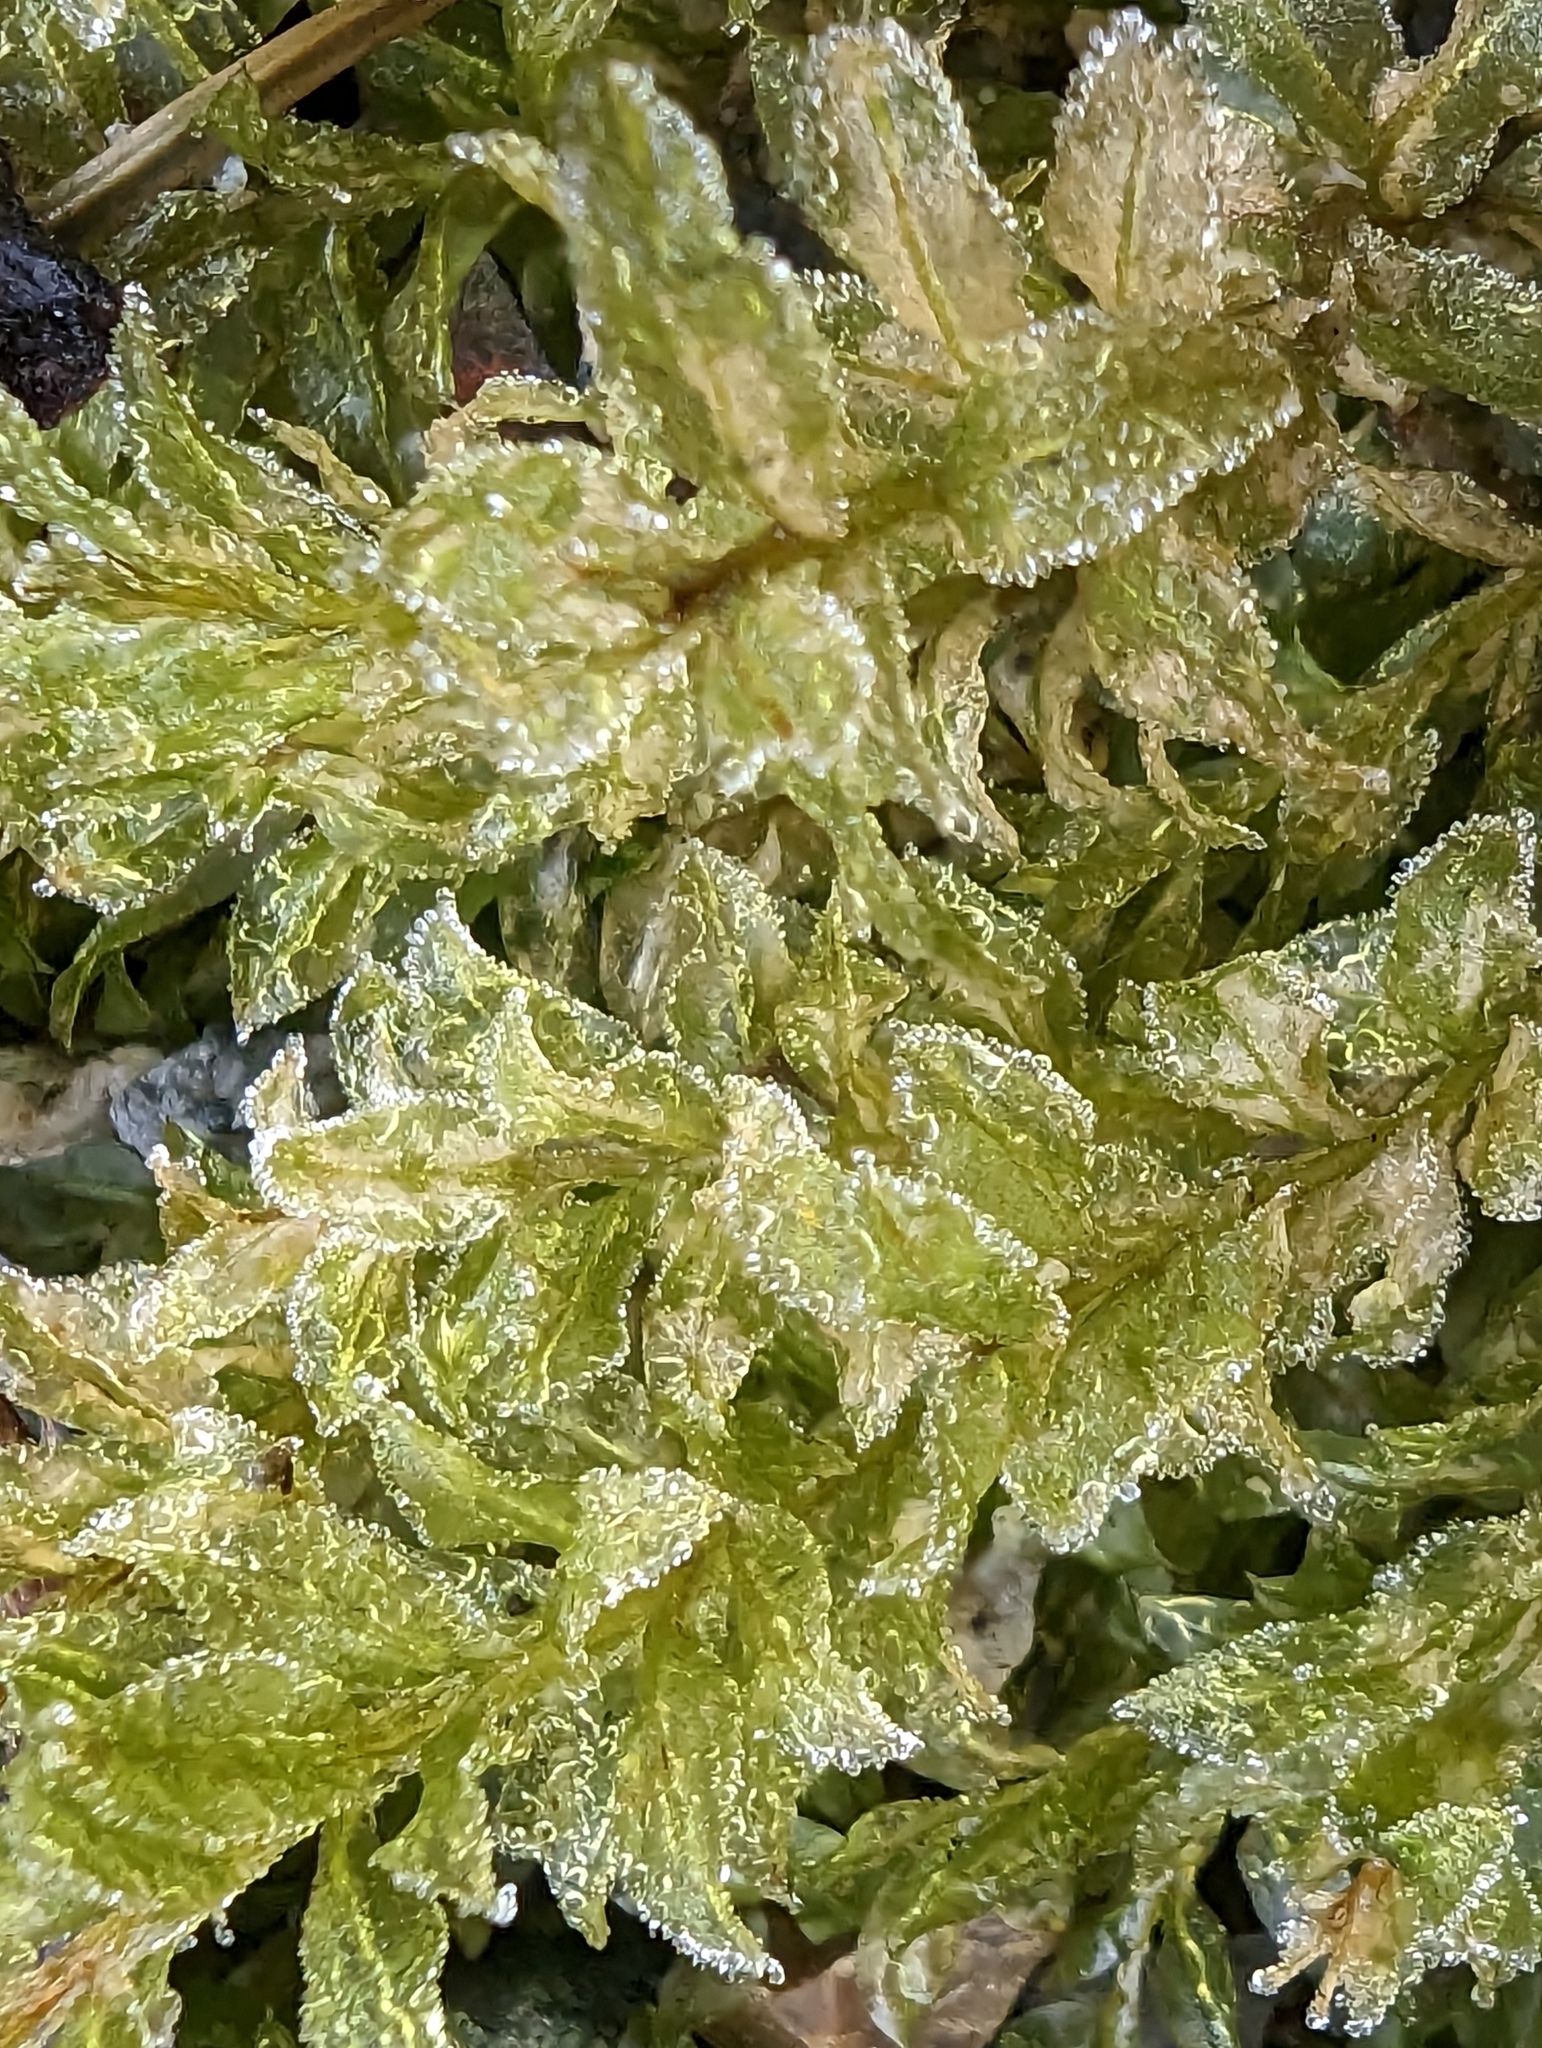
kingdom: Plantae
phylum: Bryophyta
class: Bryopsida
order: Bryales
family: Mniaceae
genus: Plagiomnium
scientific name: Plagiomnium insigne
